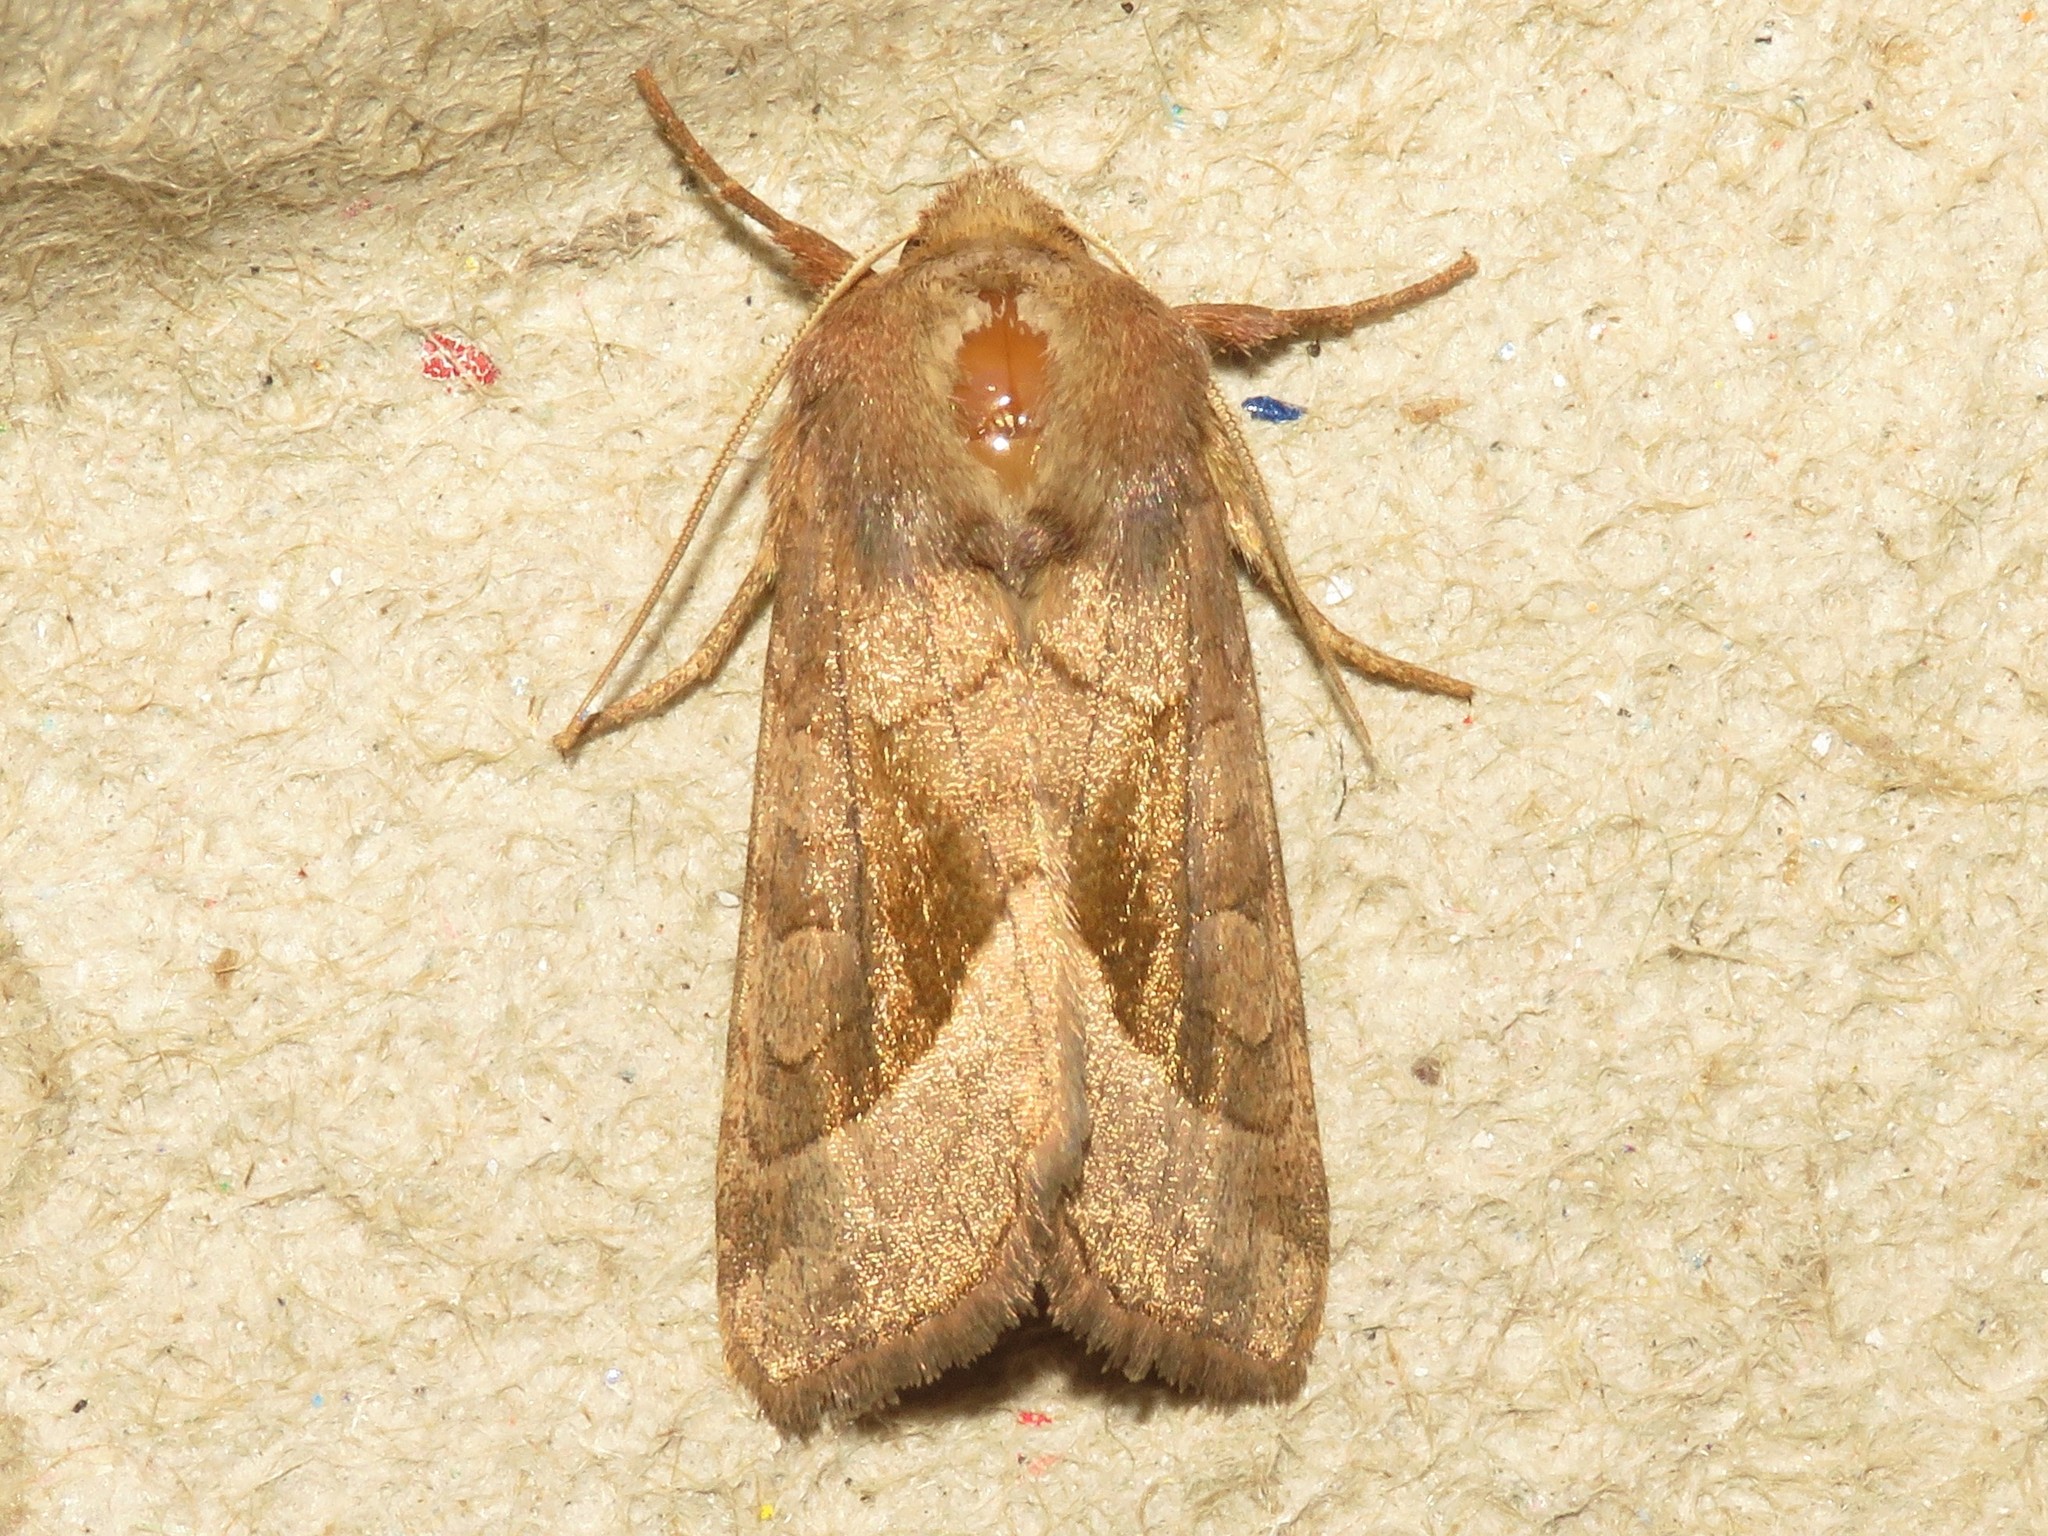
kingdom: Animalia
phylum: Arthropoda
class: Insecta
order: Lepidoptera
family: Noctuidae
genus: Hydraecia
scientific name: Hydraecia micacea
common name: Rosy rustic
